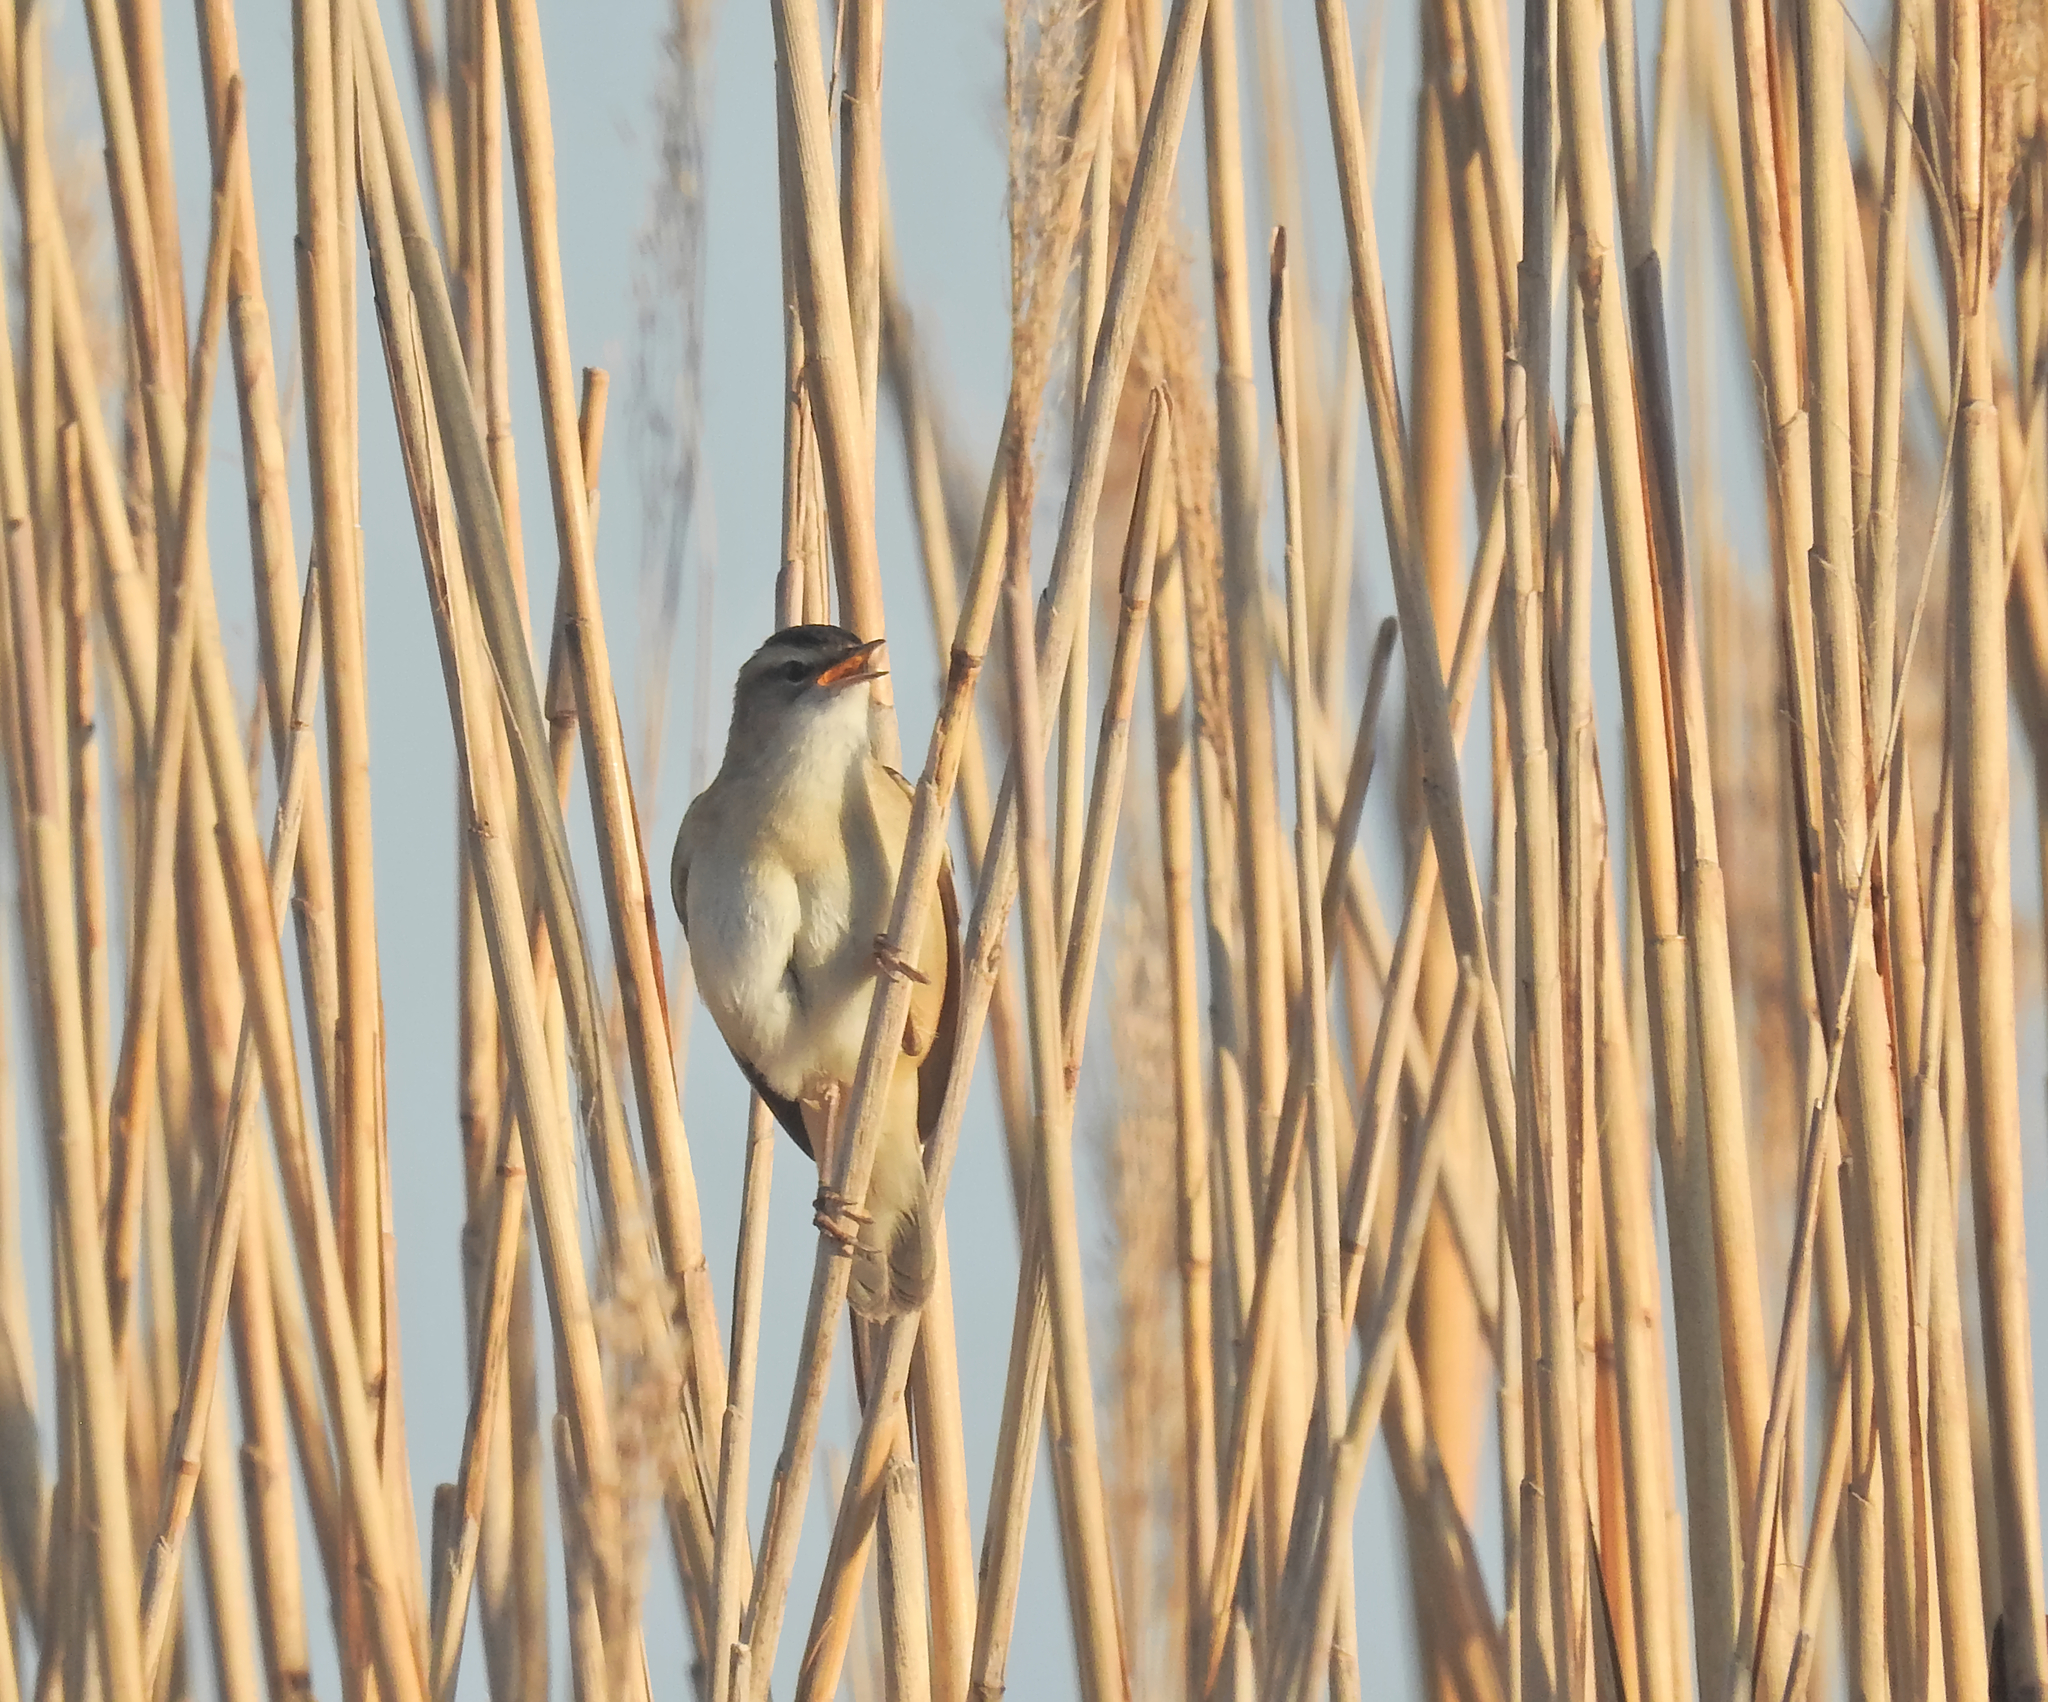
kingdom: Animalia
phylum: Chordata
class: Aves
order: Passeriformes
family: Acrocephalidae
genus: Acrocephalus
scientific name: Acrocephalus schoenobaenus
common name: Sedge warbler
